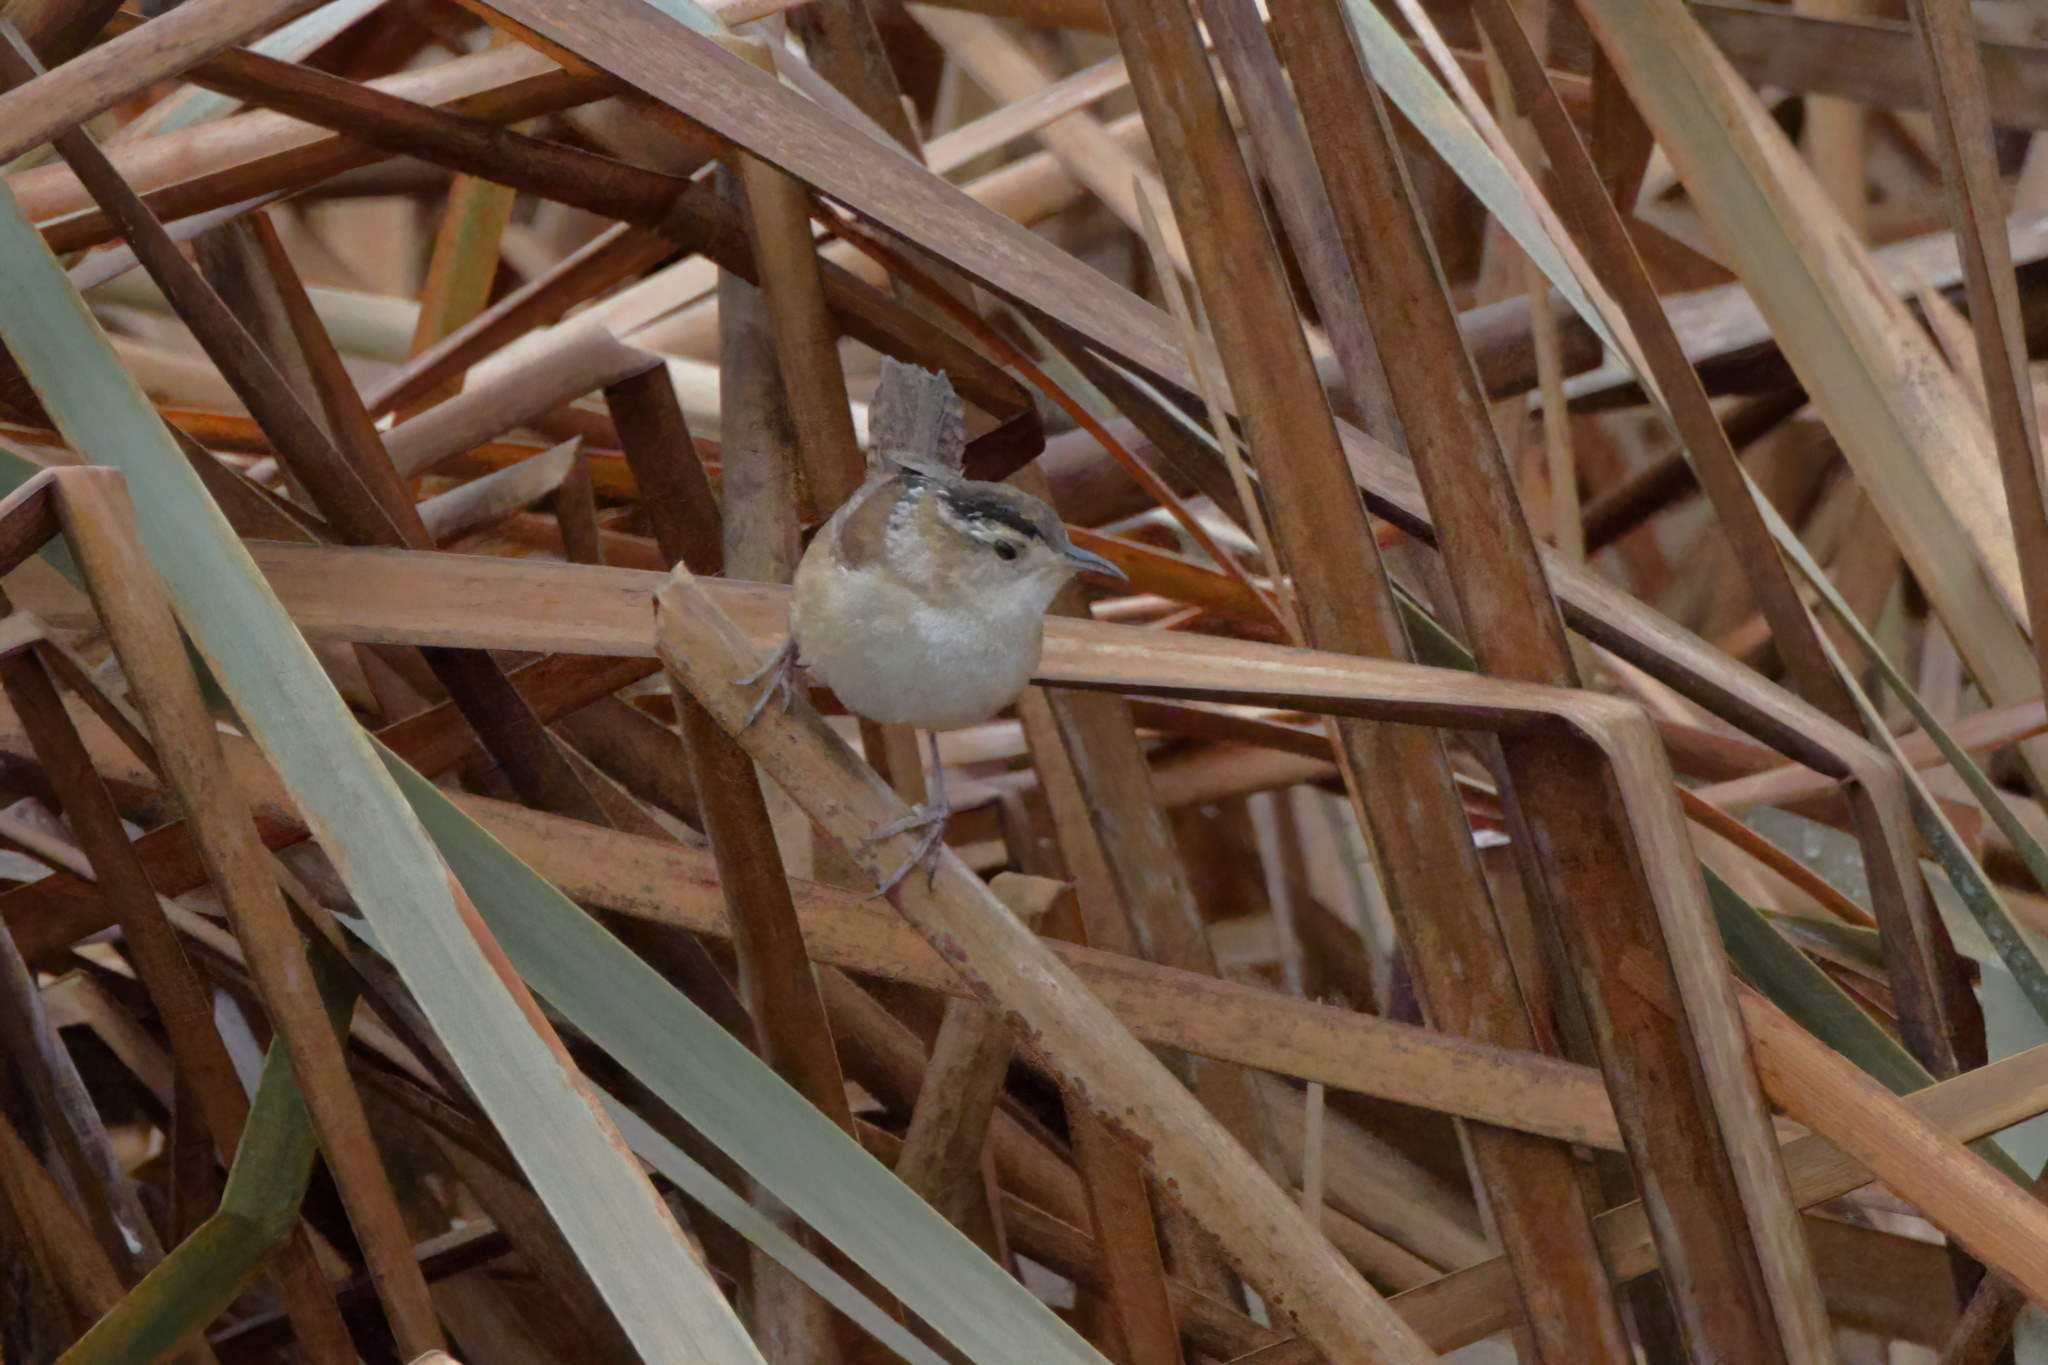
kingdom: Animalia
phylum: Chordata
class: Aves
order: Passeriformes
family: Troglodytidae
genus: Cistothorus
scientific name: Cistothorus palustris
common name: Marsh wren
